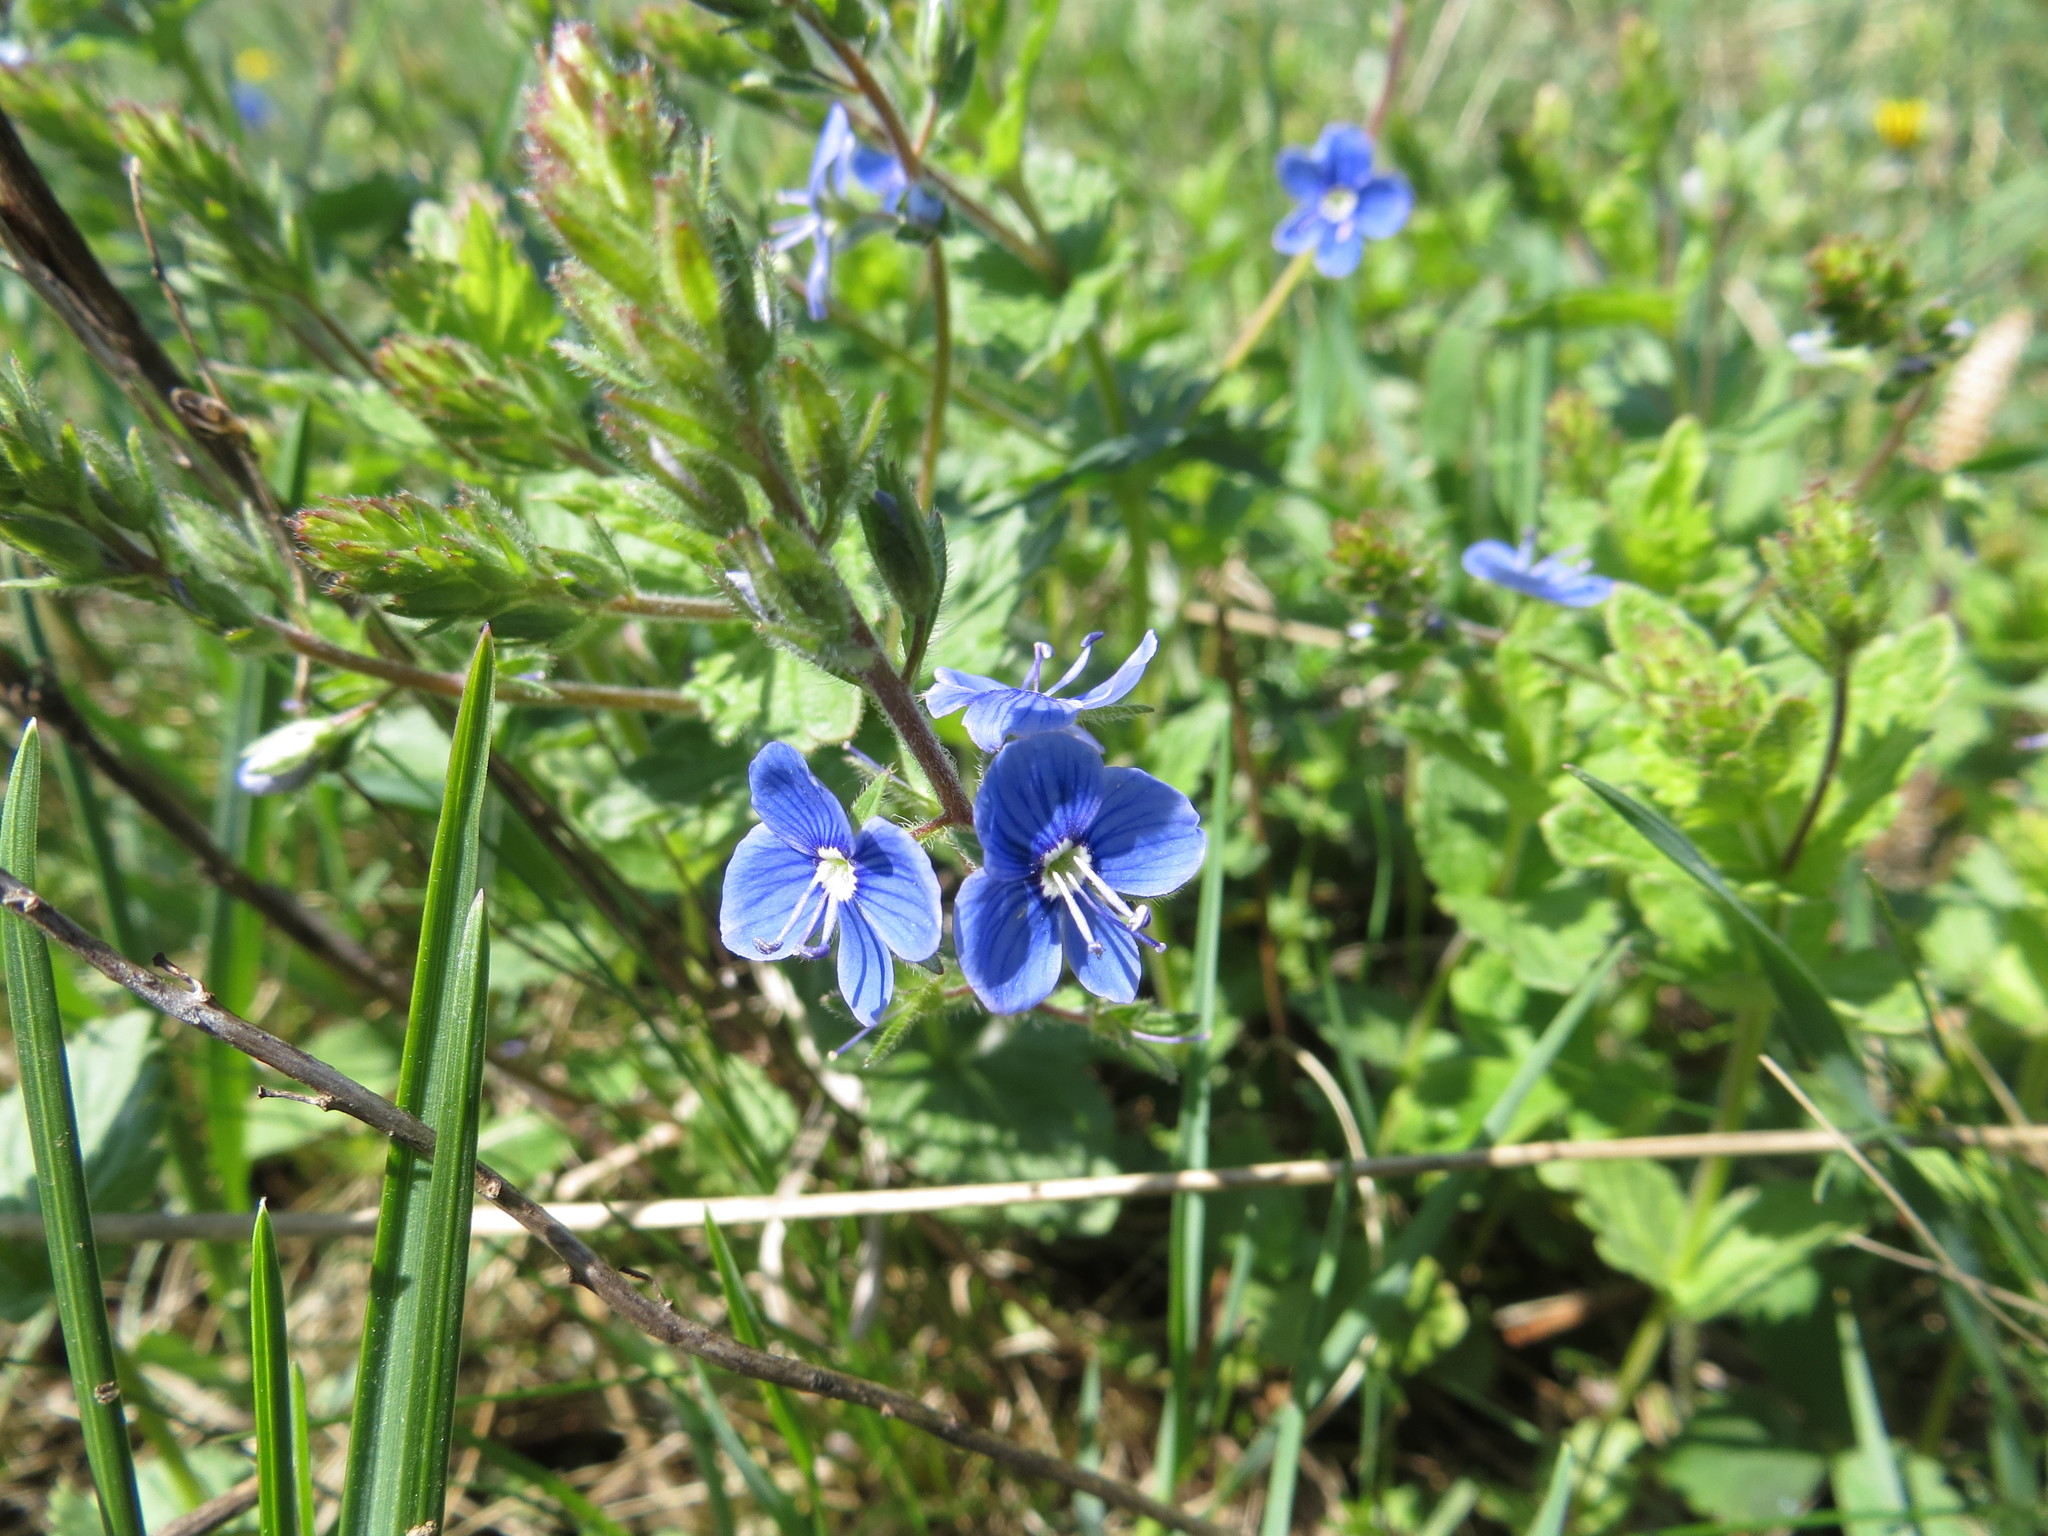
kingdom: Plantae
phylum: Tracheophyta
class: Magnoliopsida
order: Lamiales
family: Plantaginaceae
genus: Veronica
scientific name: Veronica chamaedrys
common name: Germander speedwell
